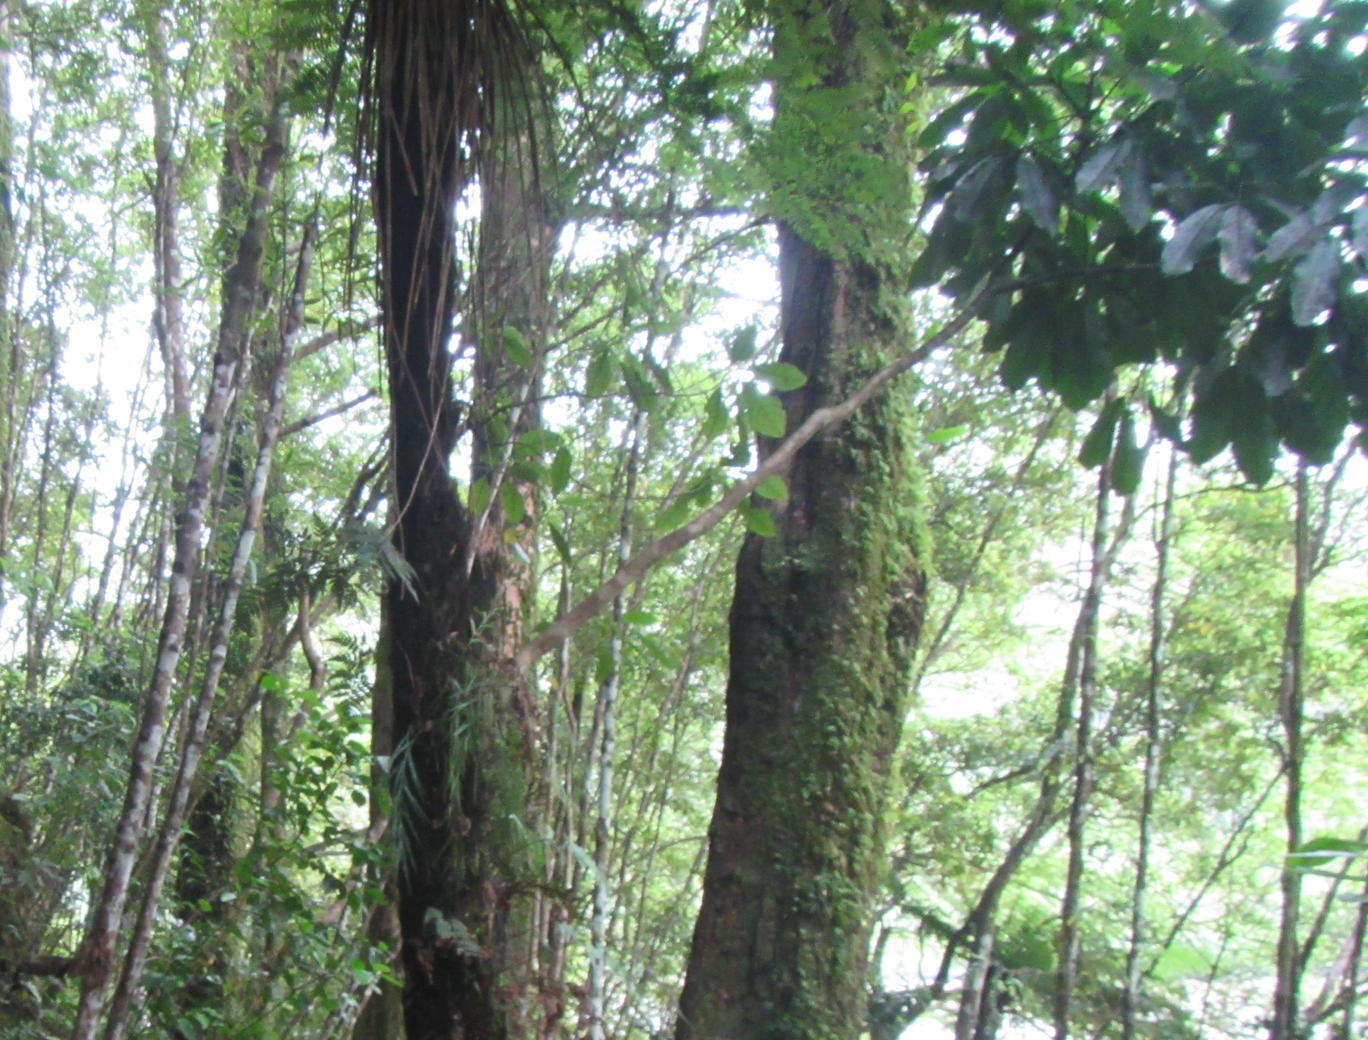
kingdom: Plantae
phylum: Tracheophyta
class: Polypodiopsida
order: Cyatheales
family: Cyatheaceae
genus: Alsophila
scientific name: Alsophila smithii
